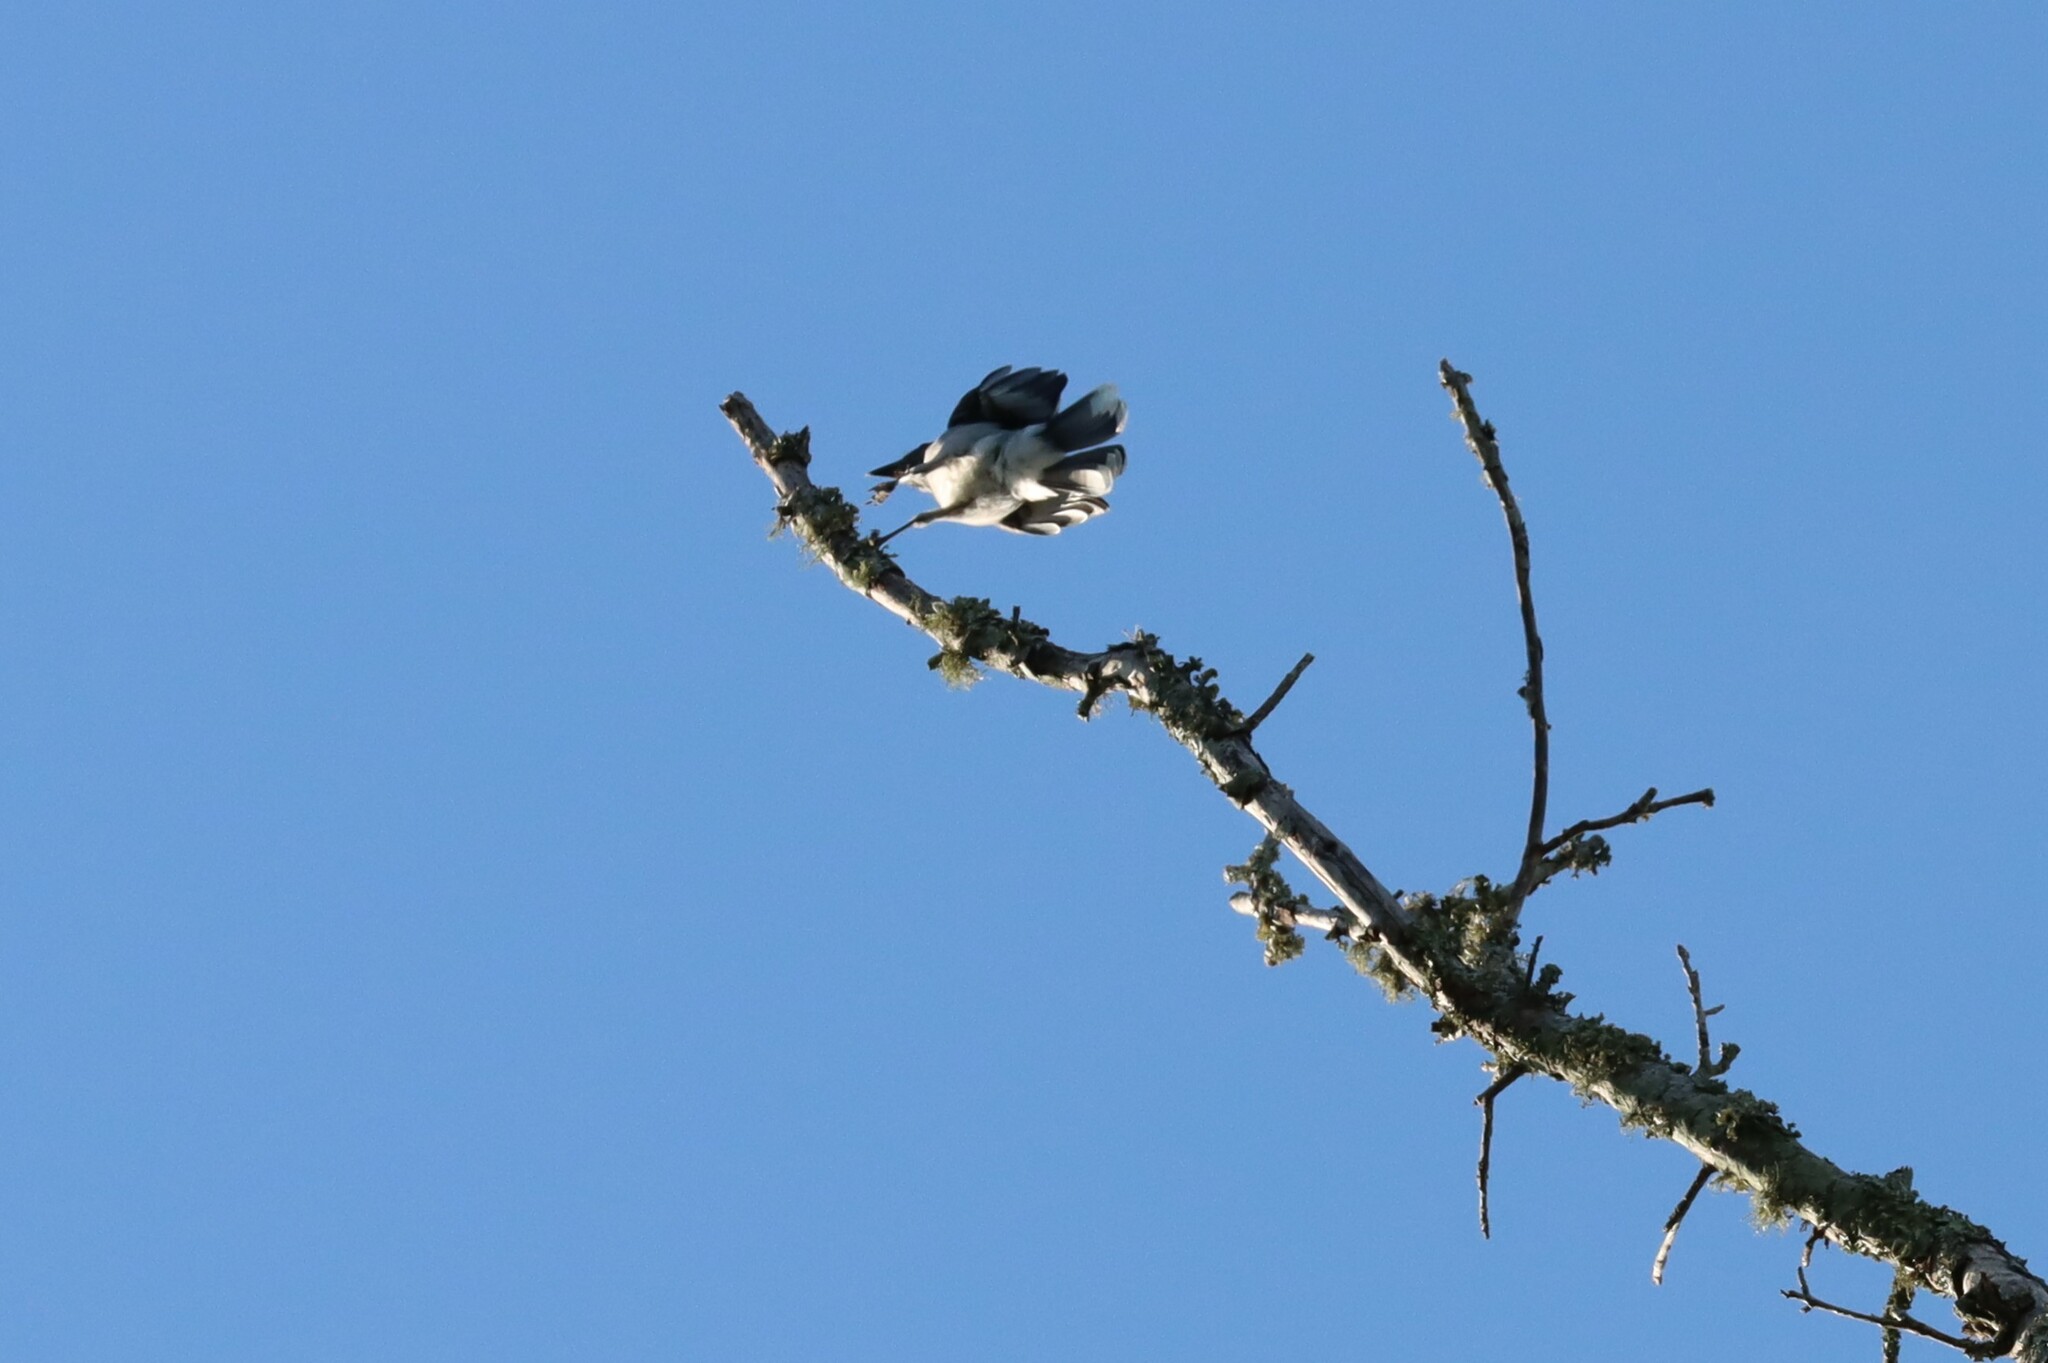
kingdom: Animalia
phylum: Chordata
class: Aves
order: Passeriformes
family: Corvidae
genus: Cyanocitta
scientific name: Cyanocitta cristata
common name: Blue jay
